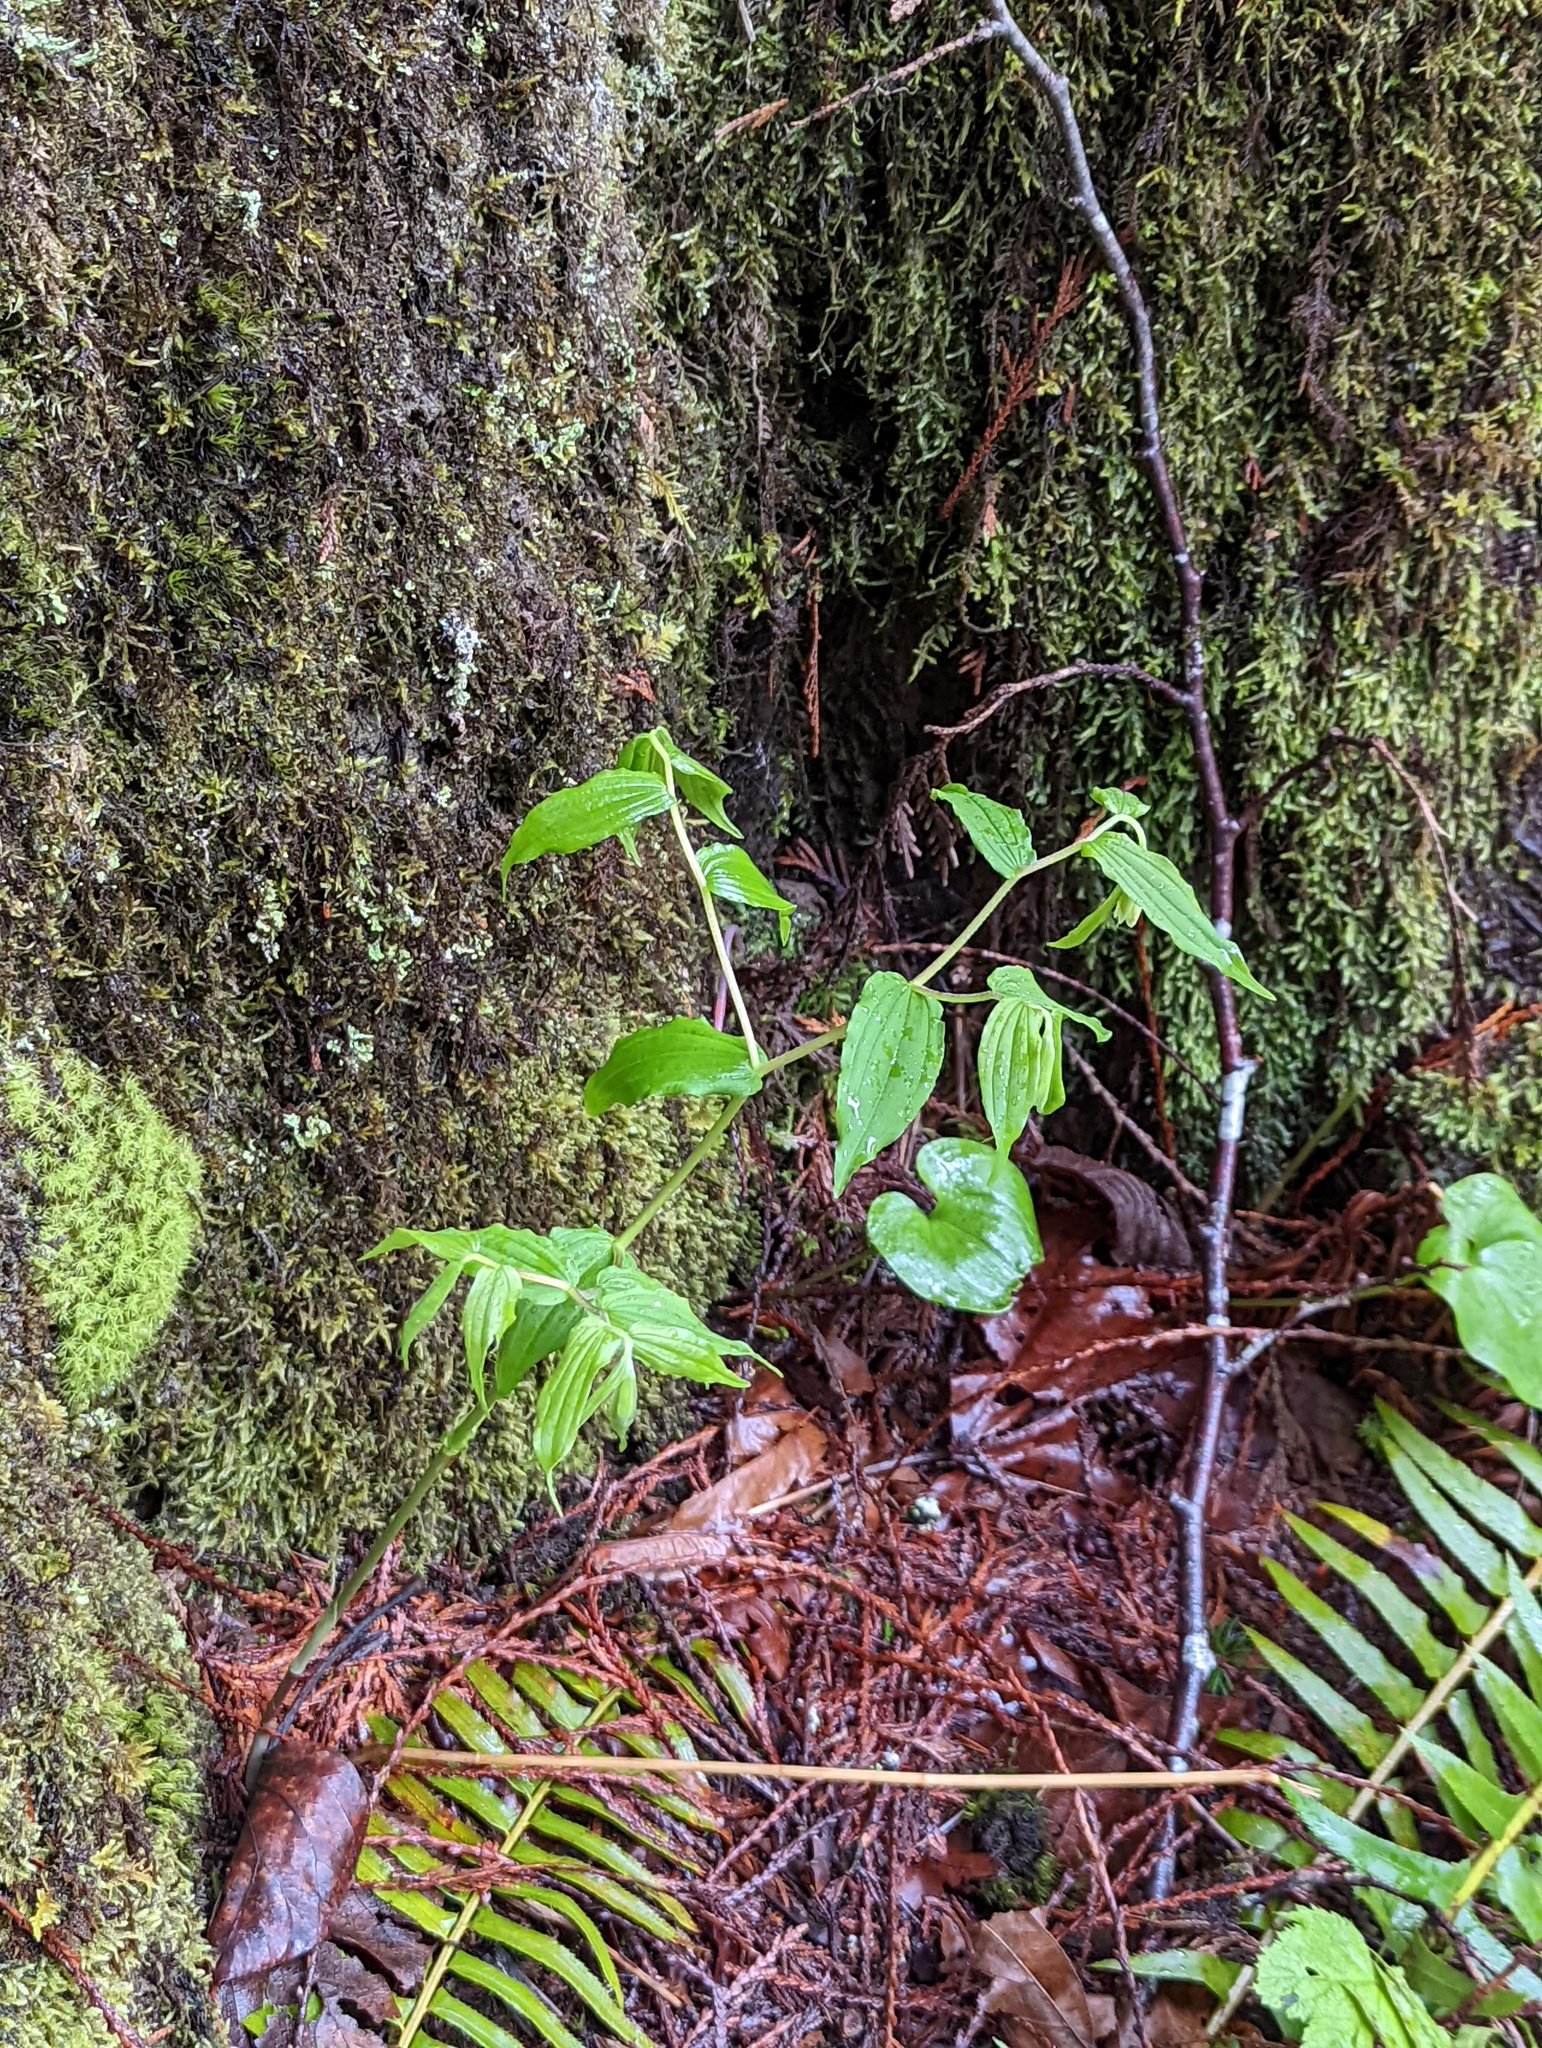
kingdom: Plantae
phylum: Tracheophyta
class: Liliopsida
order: Liliales
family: Liliaceae
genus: Prosartes
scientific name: Prosartes hookeri
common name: Fairy-bells
